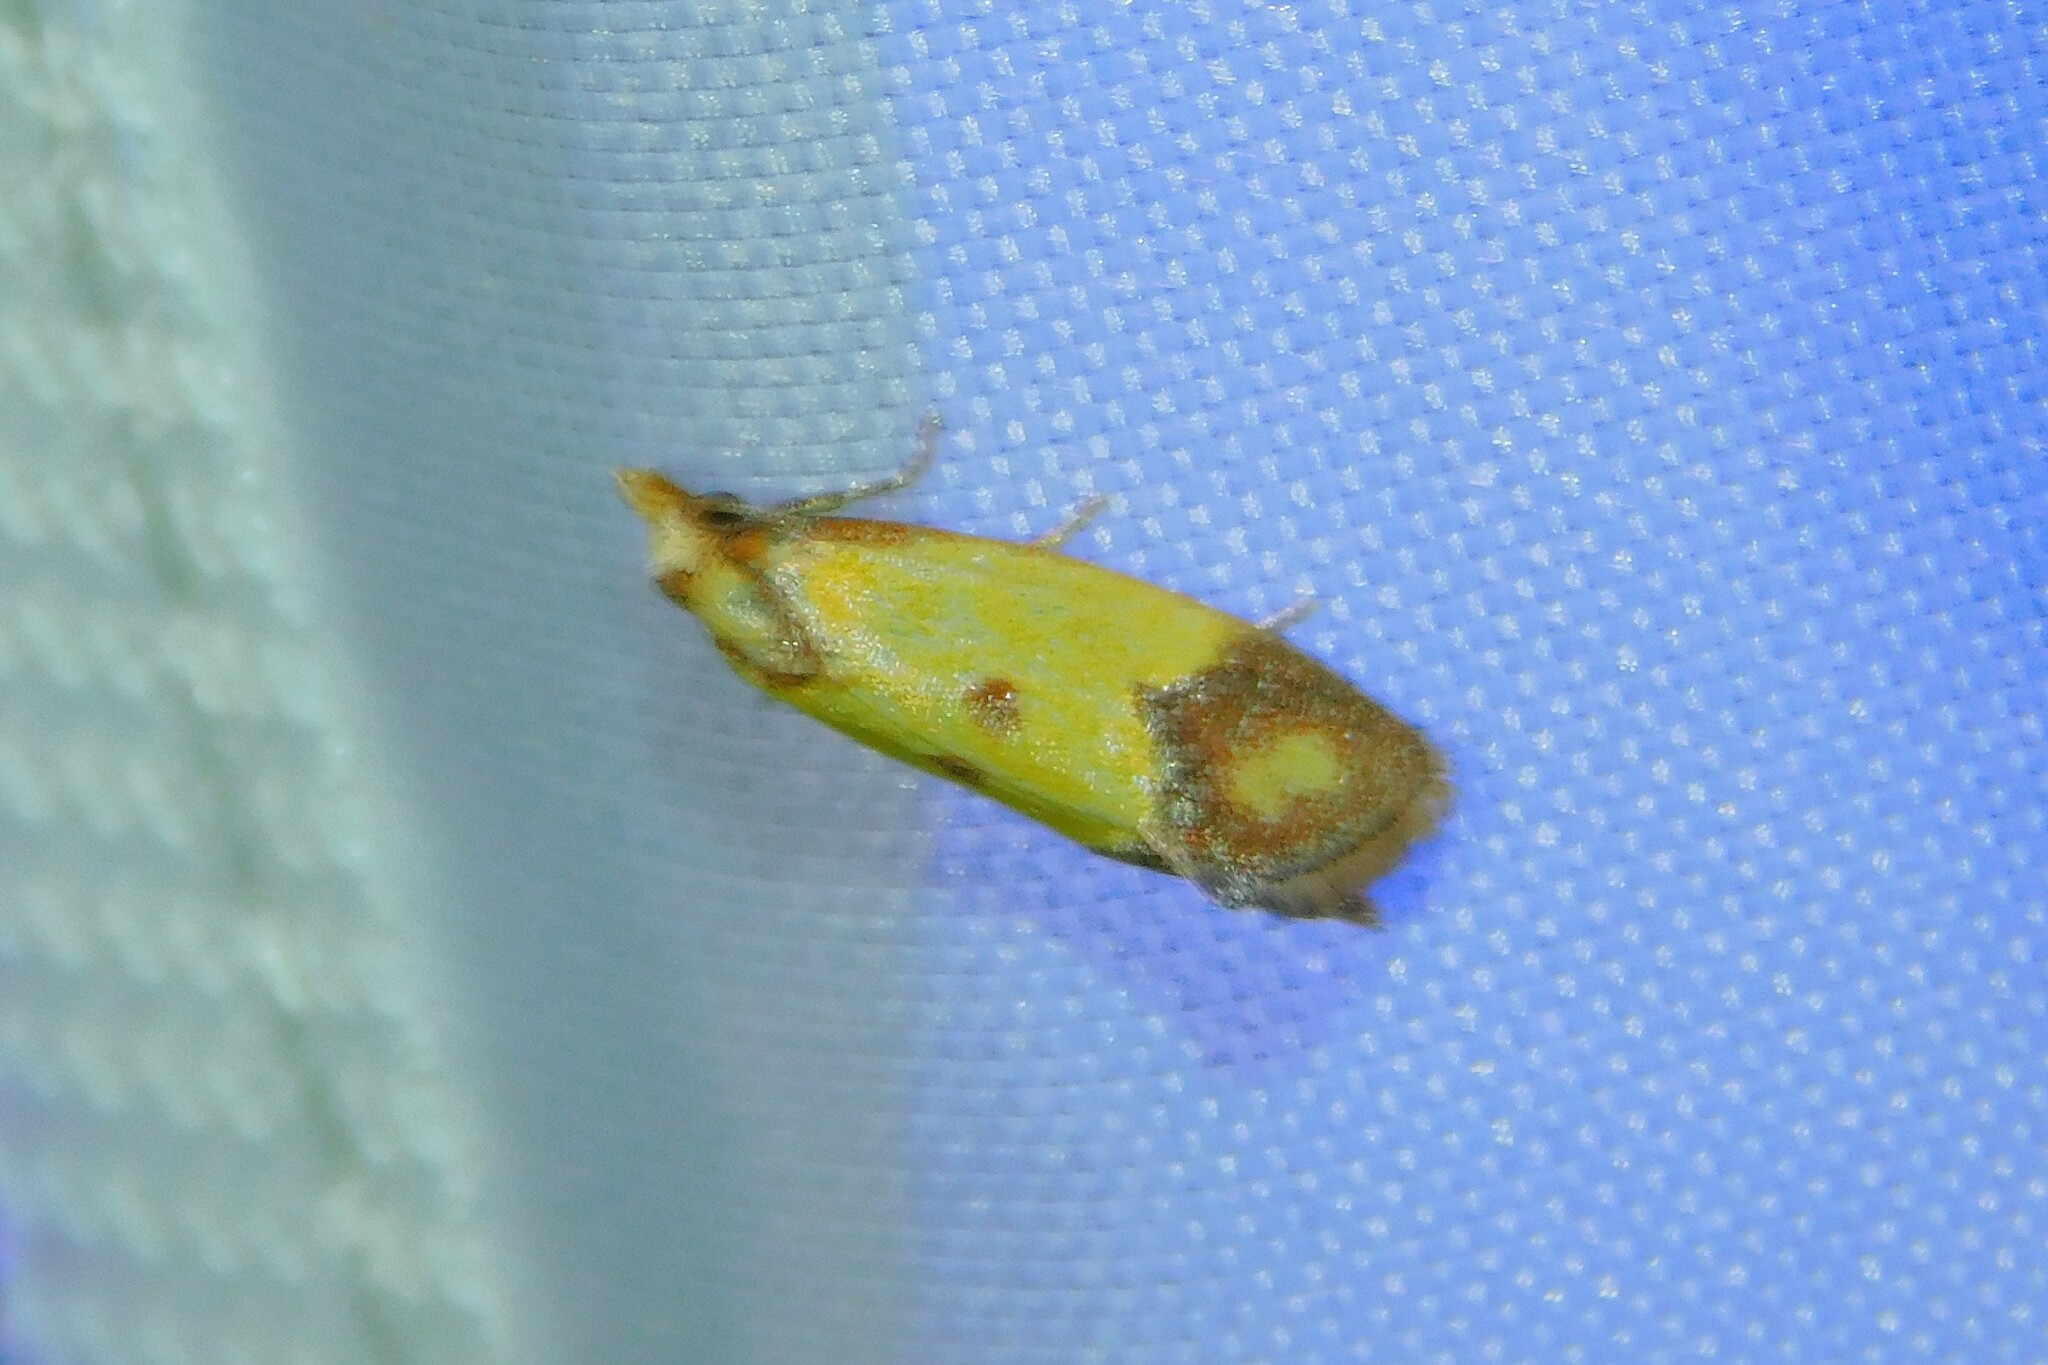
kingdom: Animalia
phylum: Arthropoda
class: Insecta
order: Lepidoptera
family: Tortricidae
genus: Agapeta
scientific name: Agapeta zoegana
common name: Sulfur knapweed root moth
